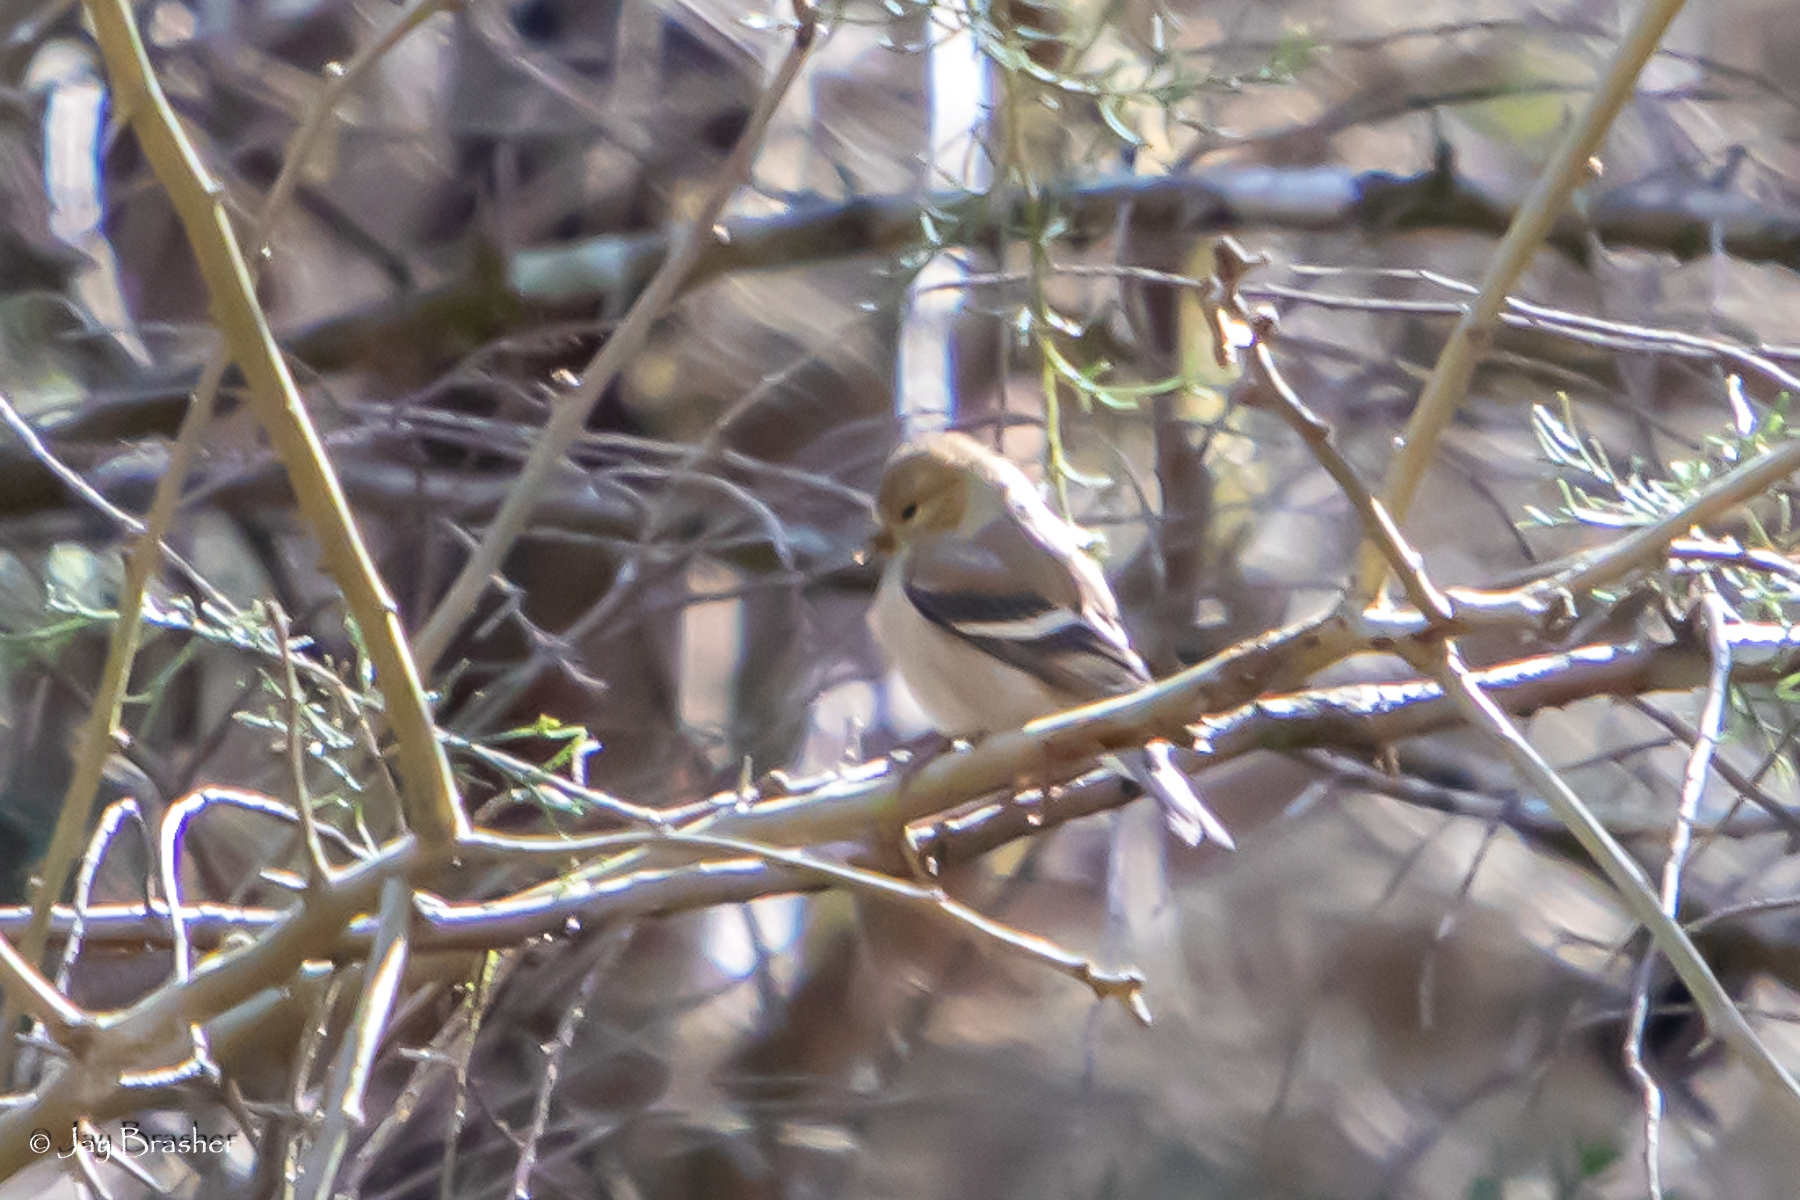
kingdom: Animalia
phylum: Chordata
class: Aves
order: Passeriformes
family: Fringillidae
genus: Spinus
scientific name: Spinus tristis
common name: American goldfinch
